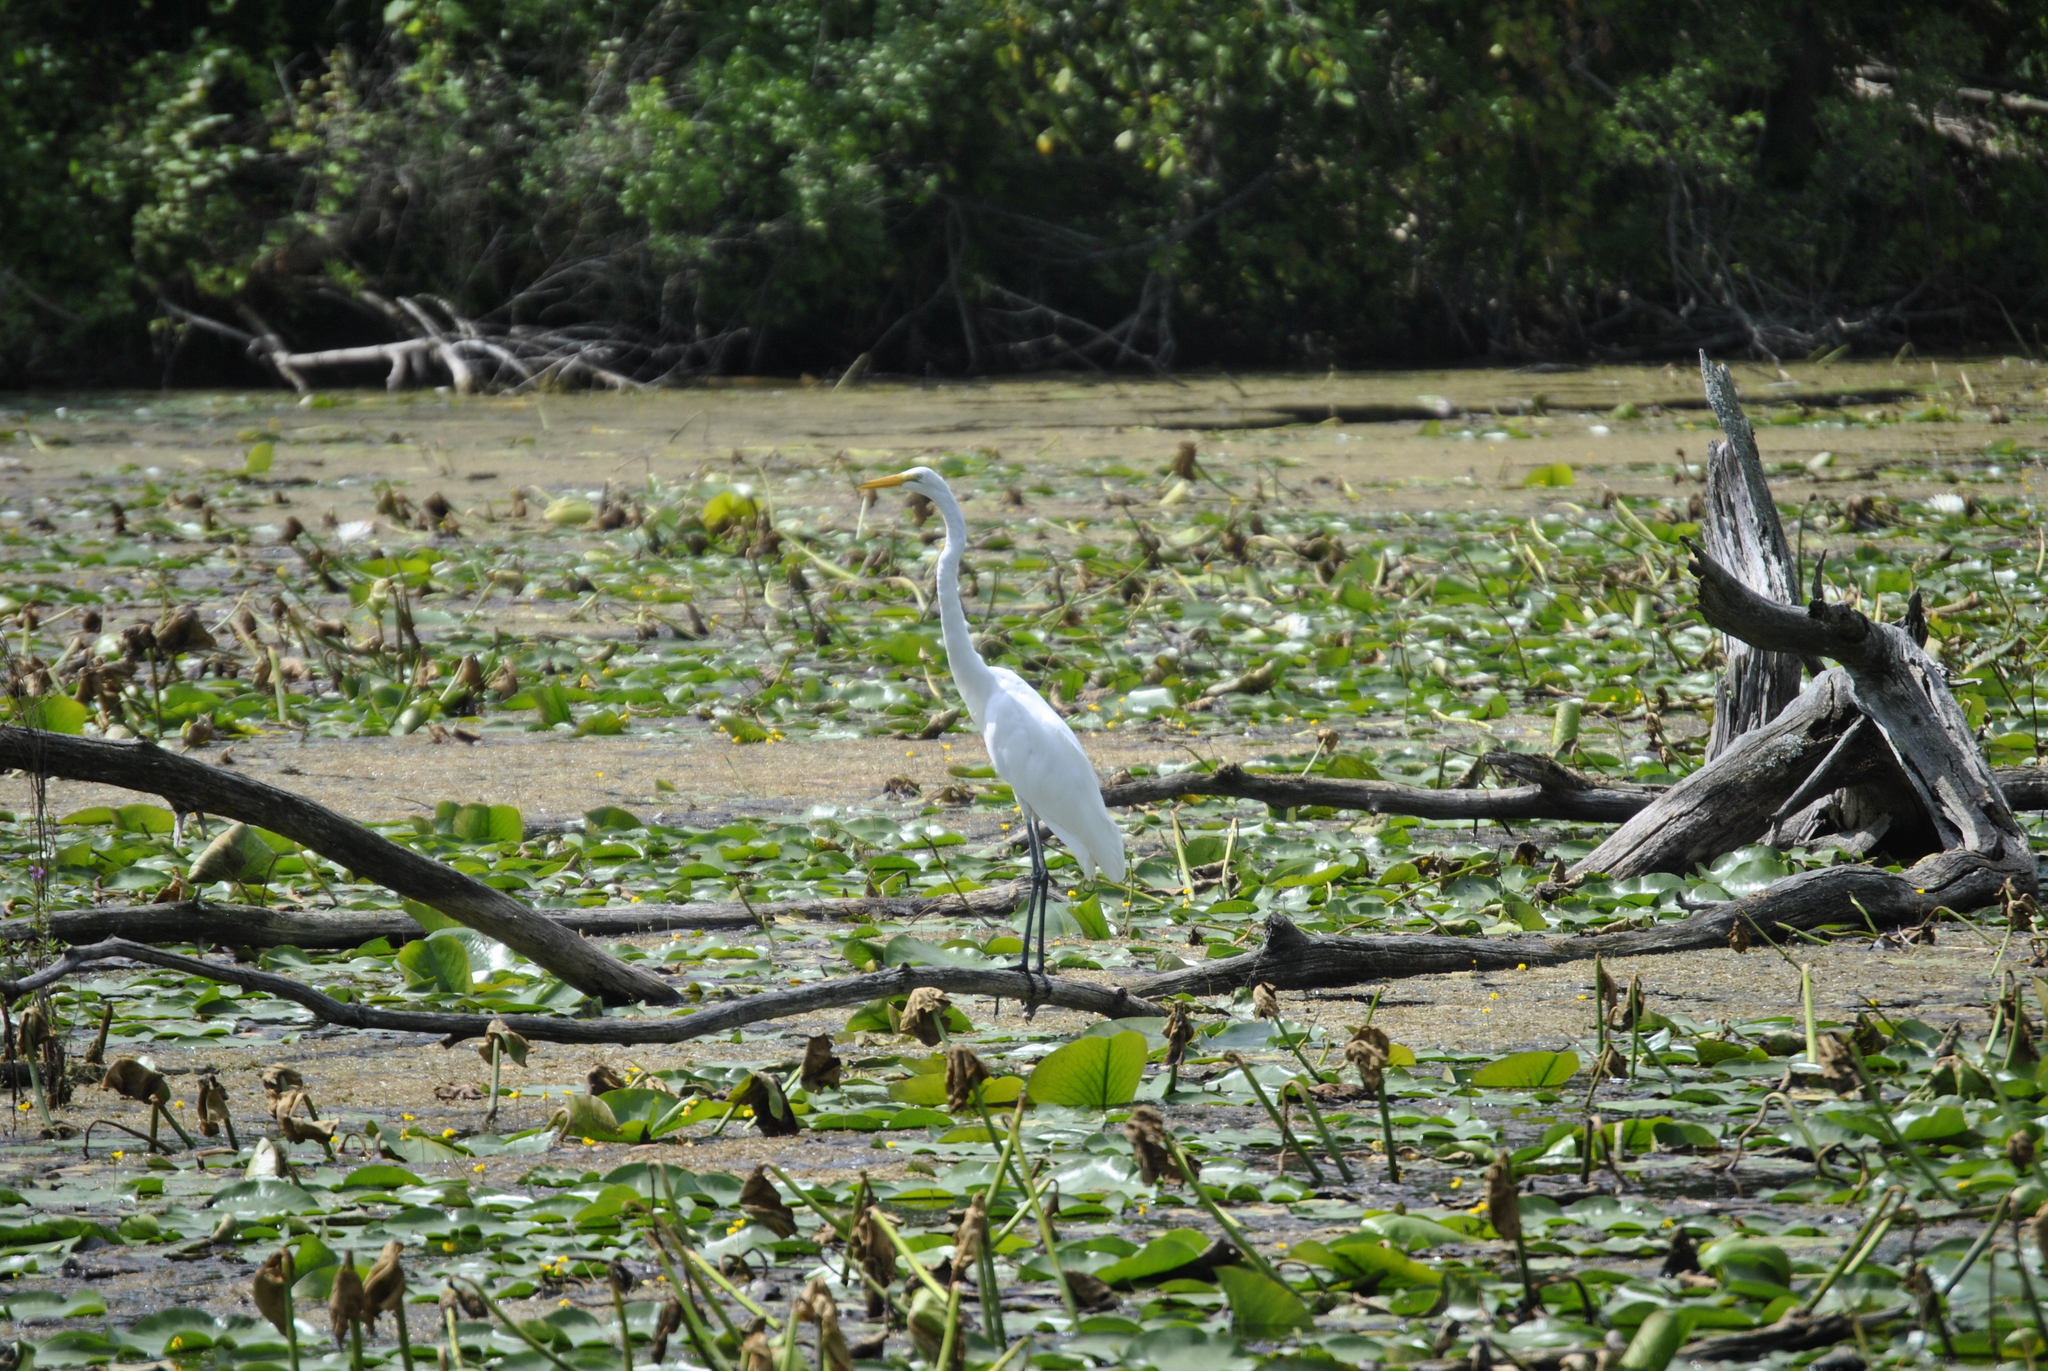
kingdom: Animalia
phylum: Chordata
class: Aves
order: Pelecaniformes
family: Ardeidae
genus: Ardea
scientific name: Ardea alba
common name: Great egret
